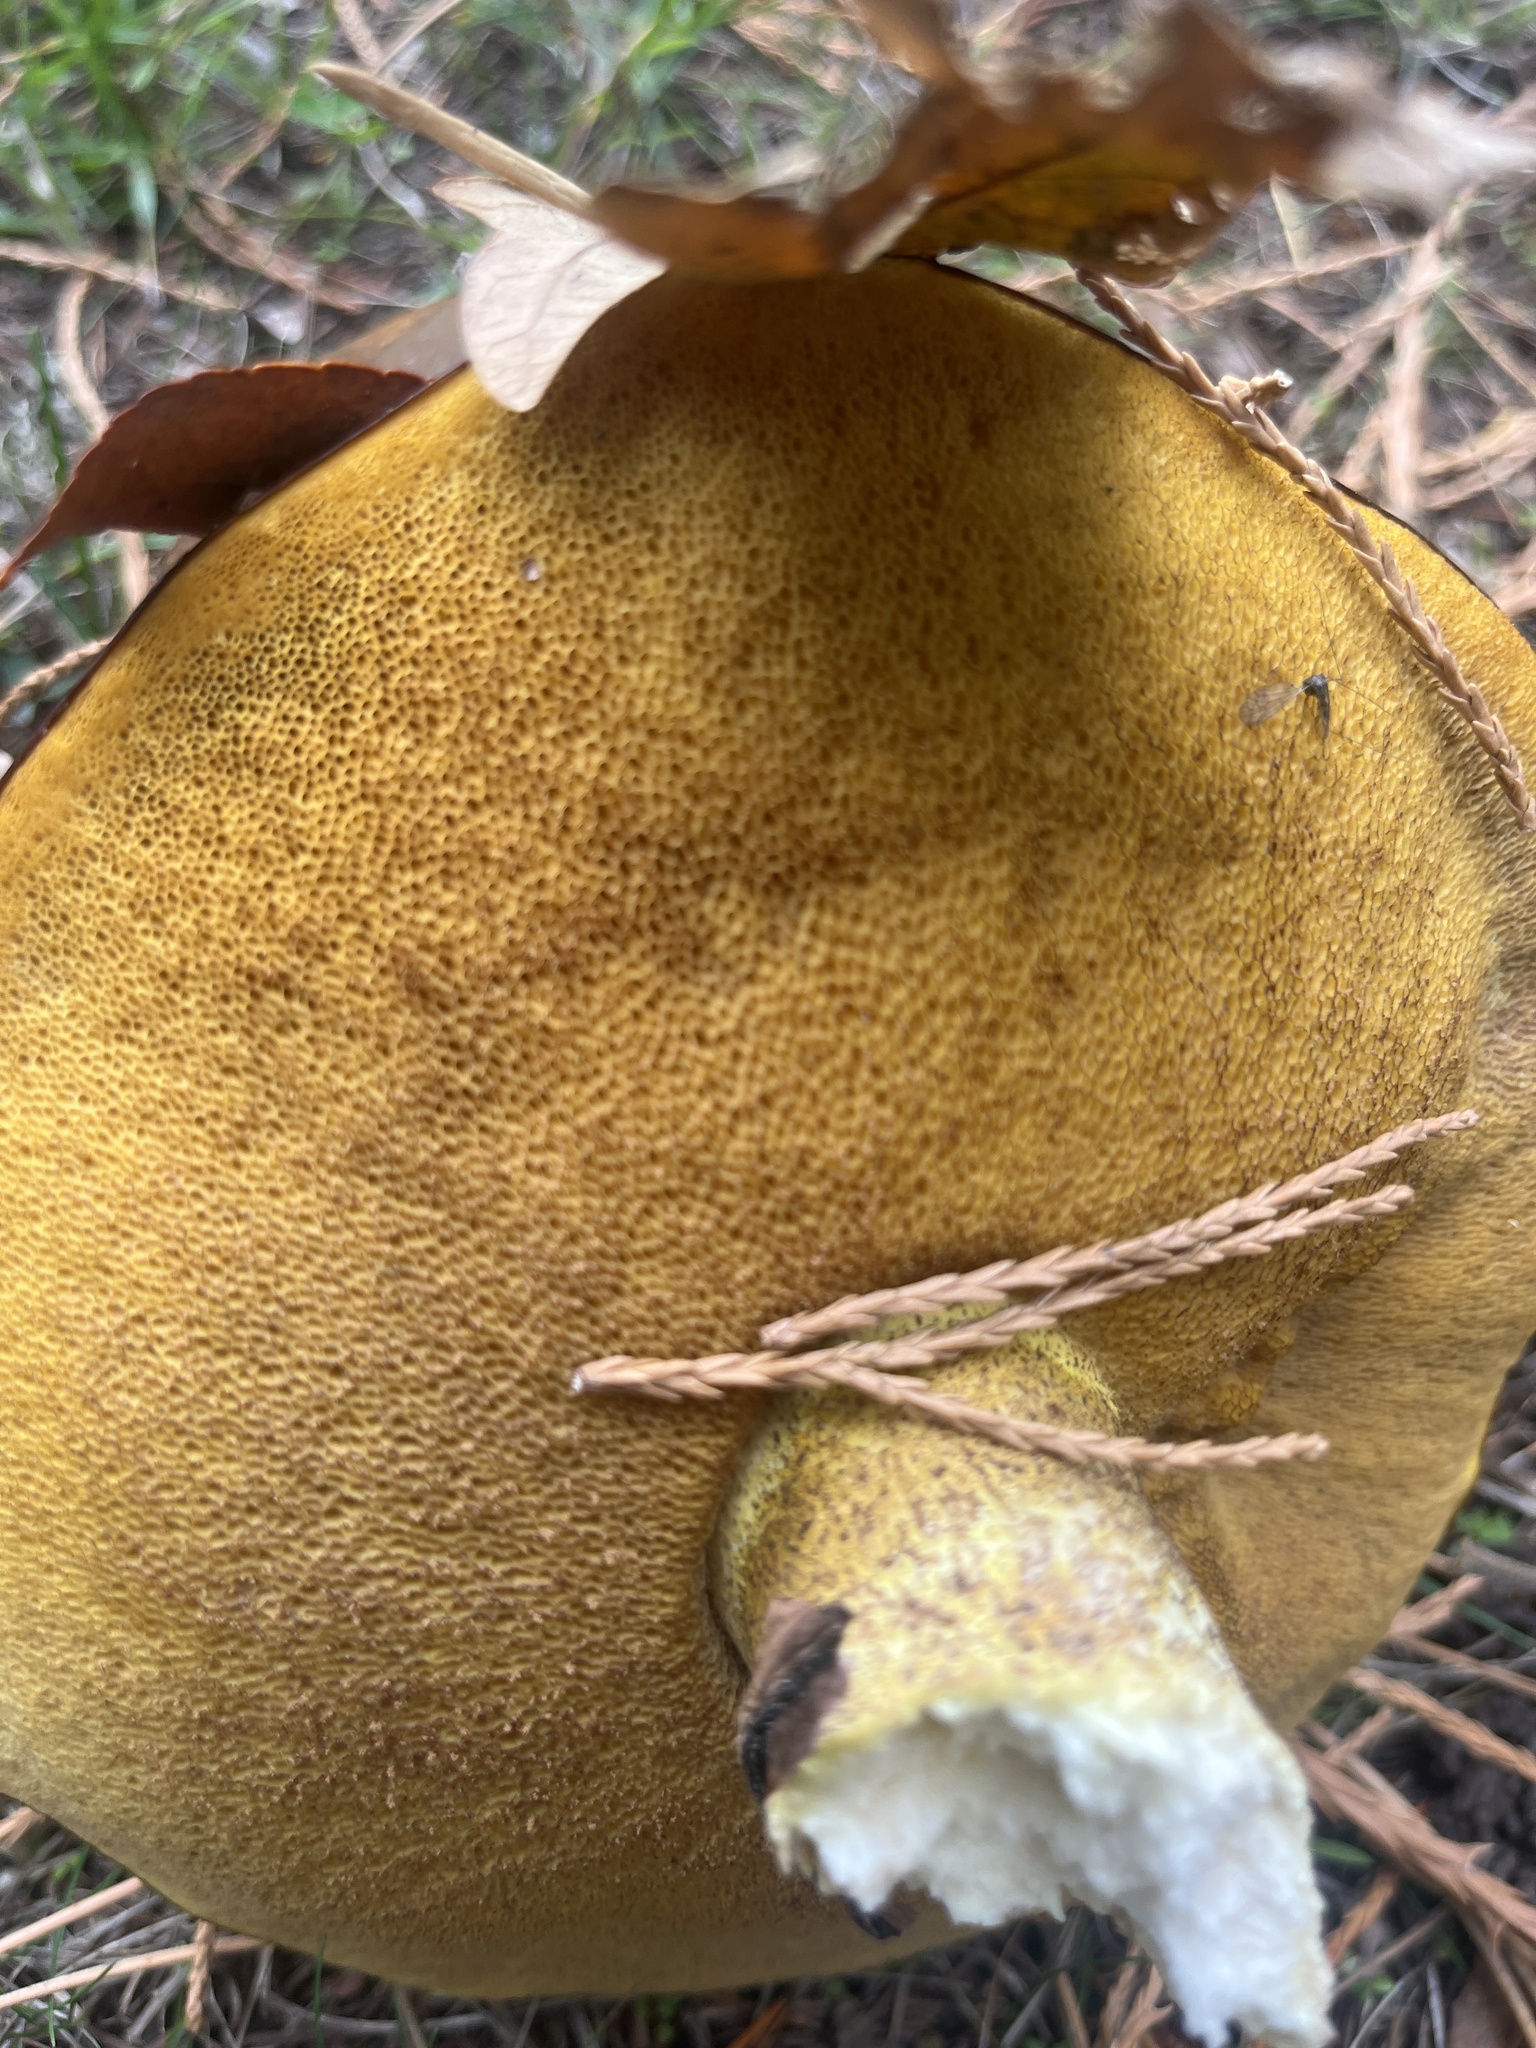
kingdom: Fungi
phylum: Basidiomycota
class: Agaricomycetes
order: Boletales
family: Suillaceae
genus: Suillus
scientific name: Suillus luteus
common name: Slippery jack
